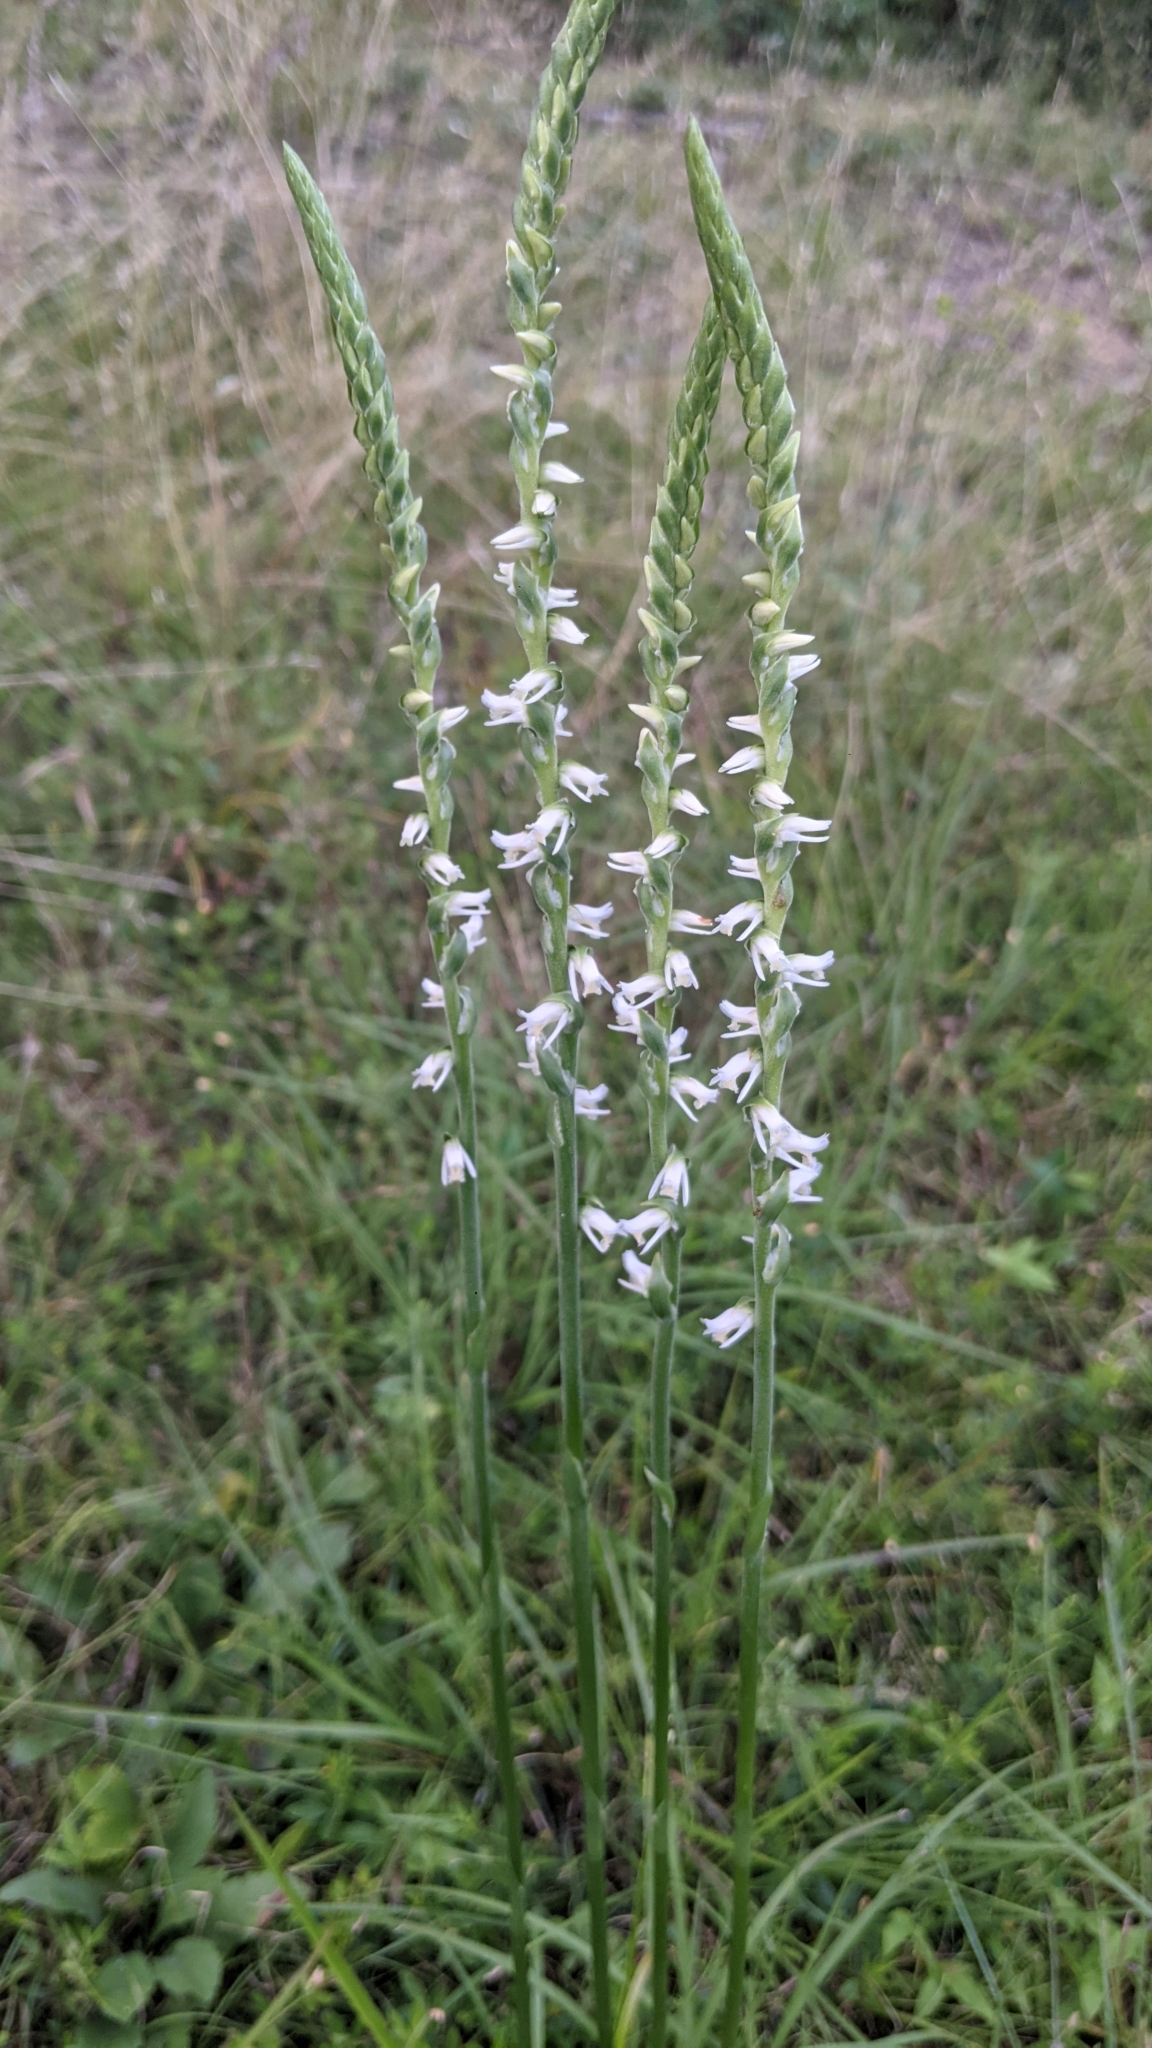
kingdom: Plantae
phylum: Tracheophyta
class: Liliopsida
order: Asparagales
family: Orchidaceae
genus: Spiranthes
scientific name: Spiranthes vernalis
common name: Spring ladies'-tresses
